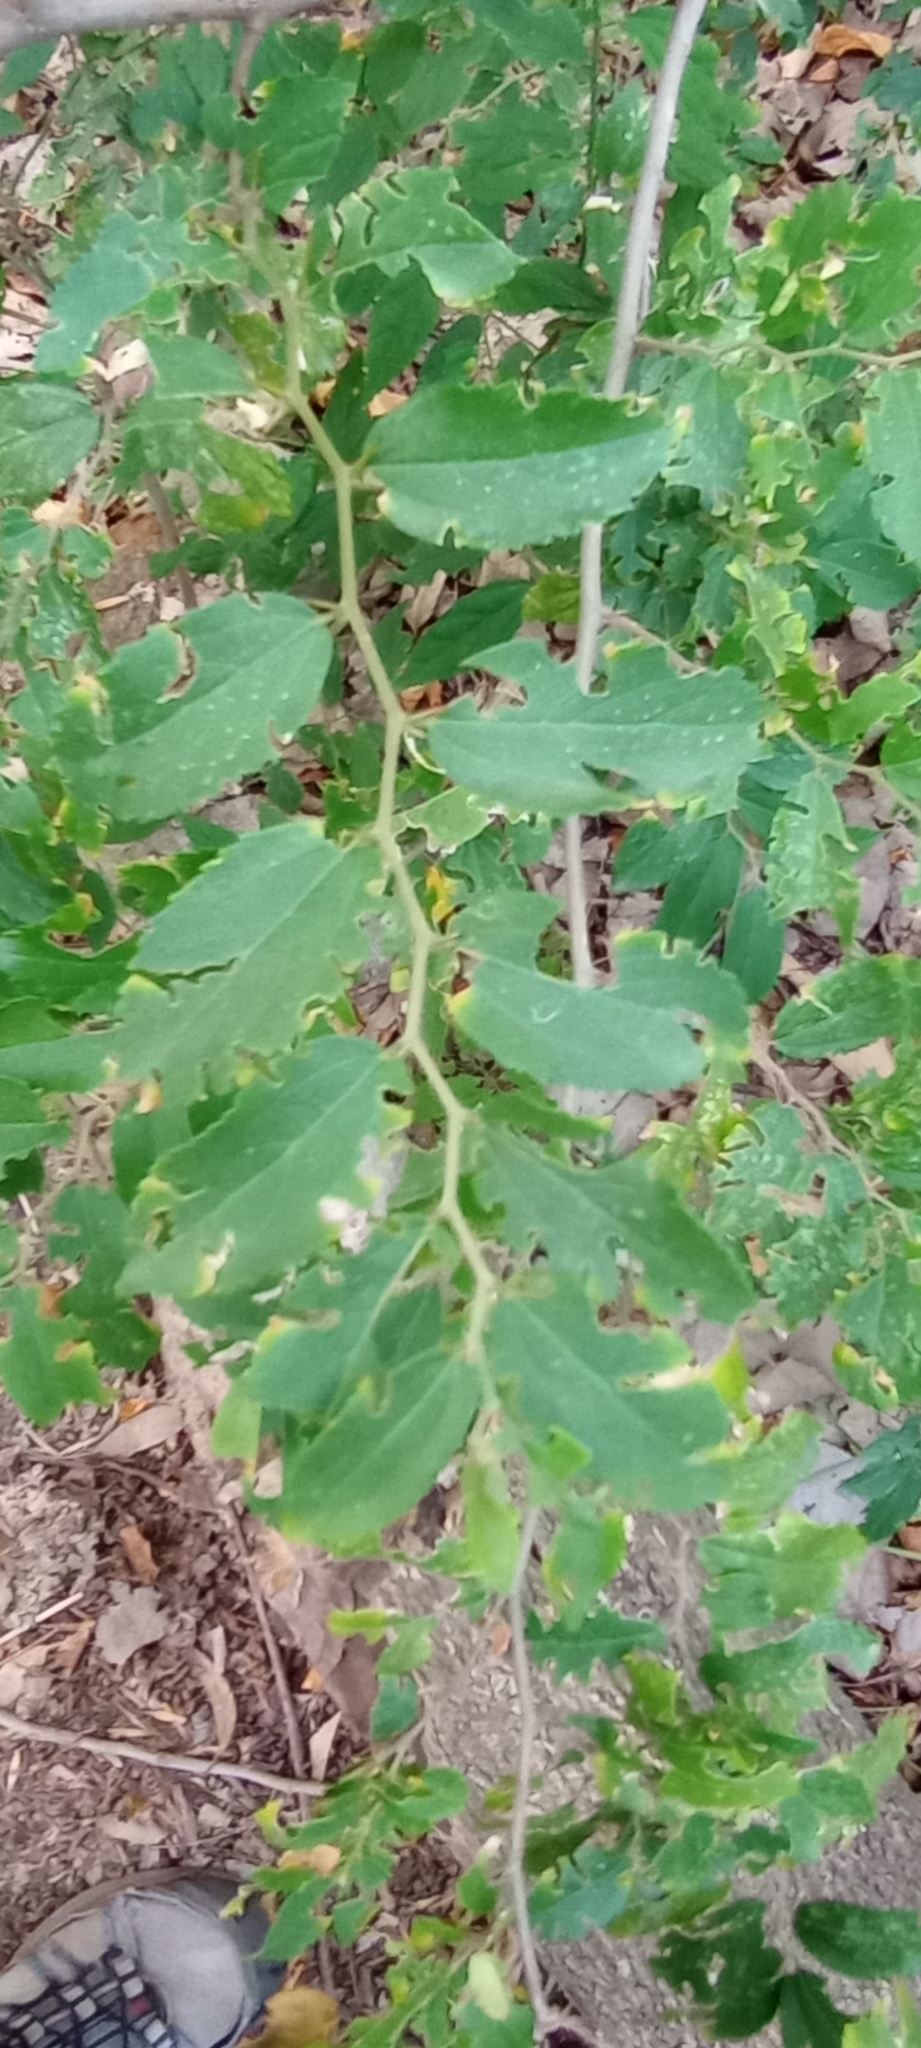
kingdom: Plantae
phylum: Tracheophyta
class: Magnoliopsida
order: Rosales
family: Cannabaceae
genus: Celtis
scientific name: Celtis iguanaea
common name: Iguana hackberry
